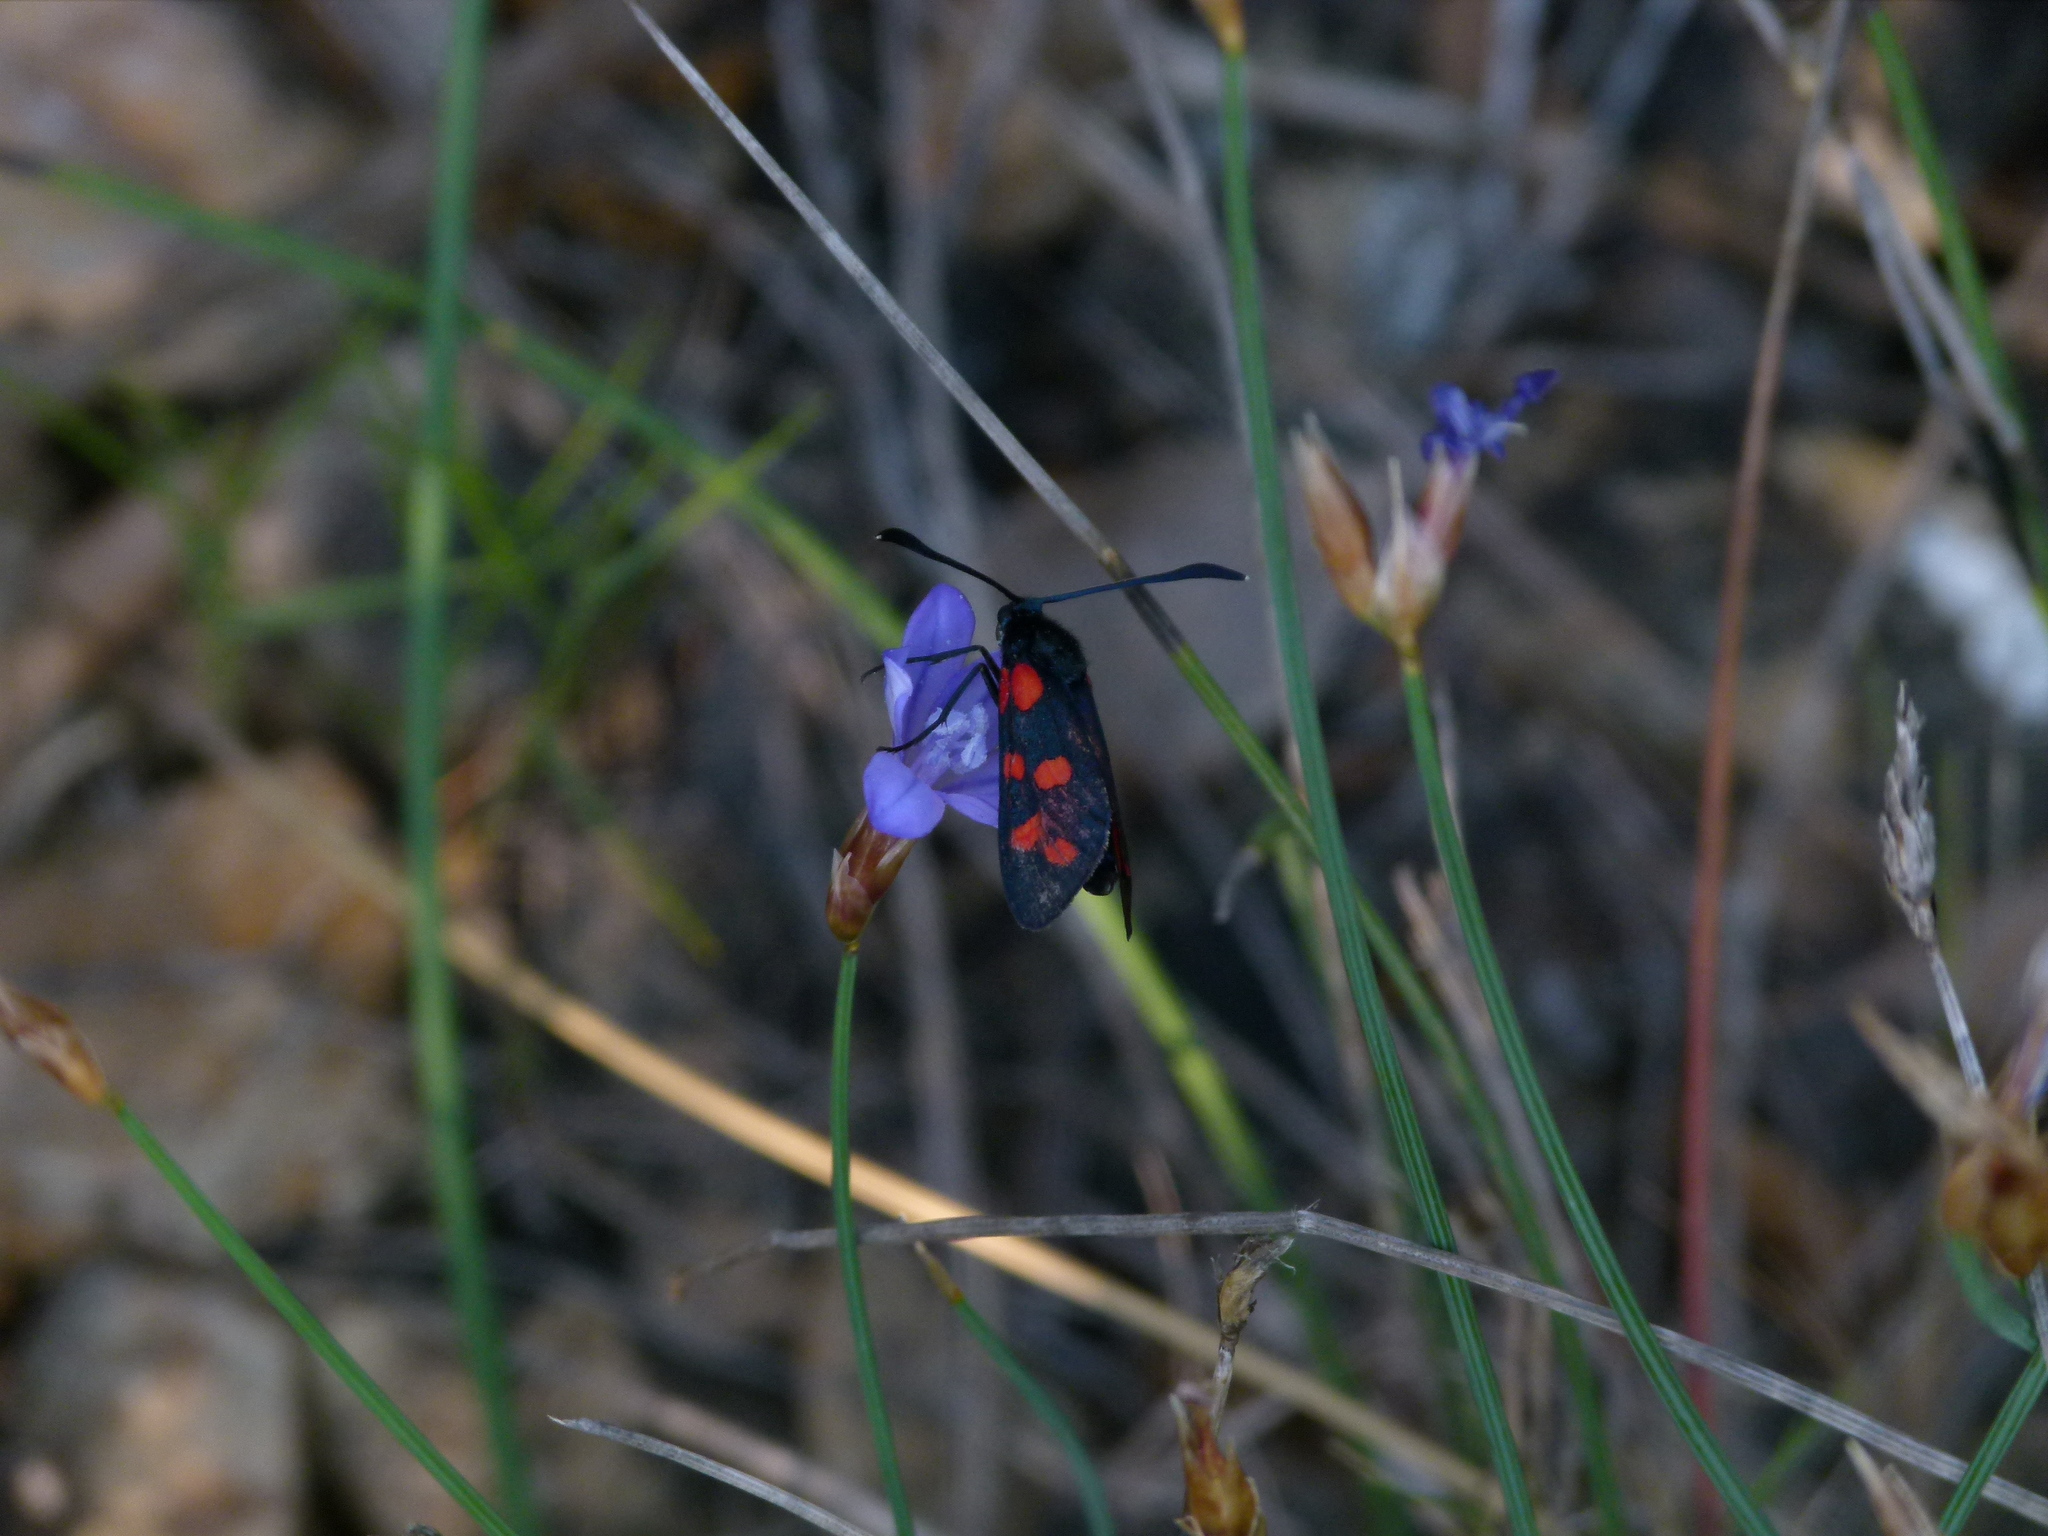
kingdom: Animalia
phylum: Arthropoda
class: Insecta
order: Lepidoptera
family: Zygaenidae
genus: Zygaena
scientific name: Zygaena transalpina
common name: Southern six spot burnet
